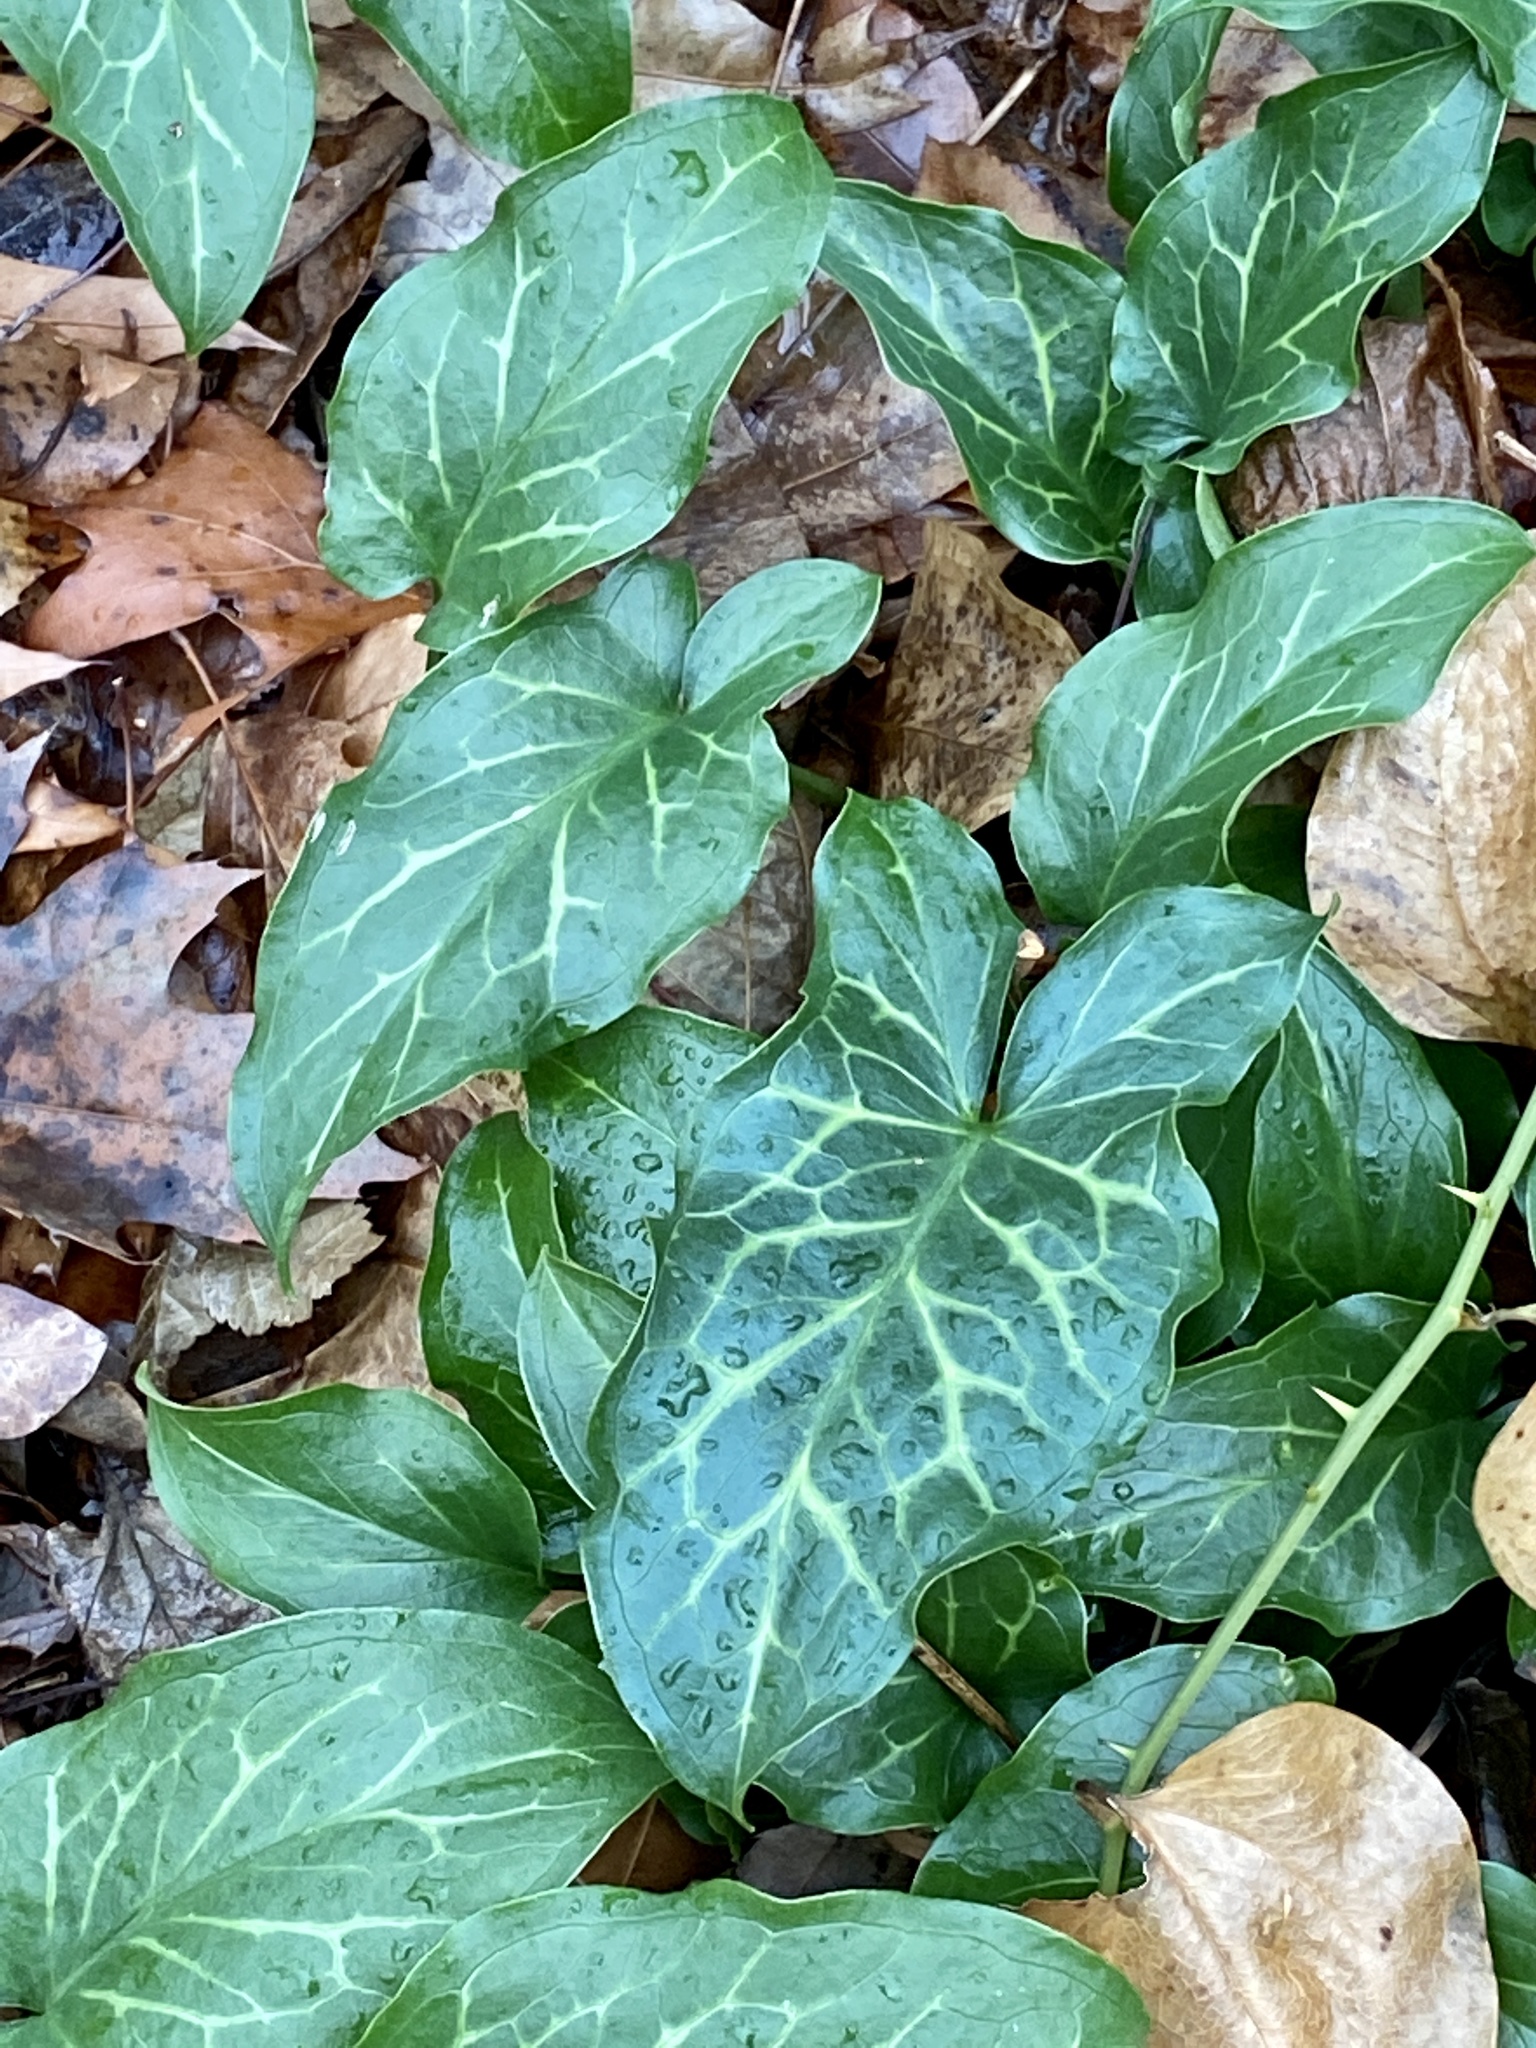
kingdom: Plantae
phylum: Tracheophyta
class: Liliopsida
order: Alismatales
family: Araceae
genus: Arum
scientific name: Arum italicum
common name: Italian lords-and-ladies
